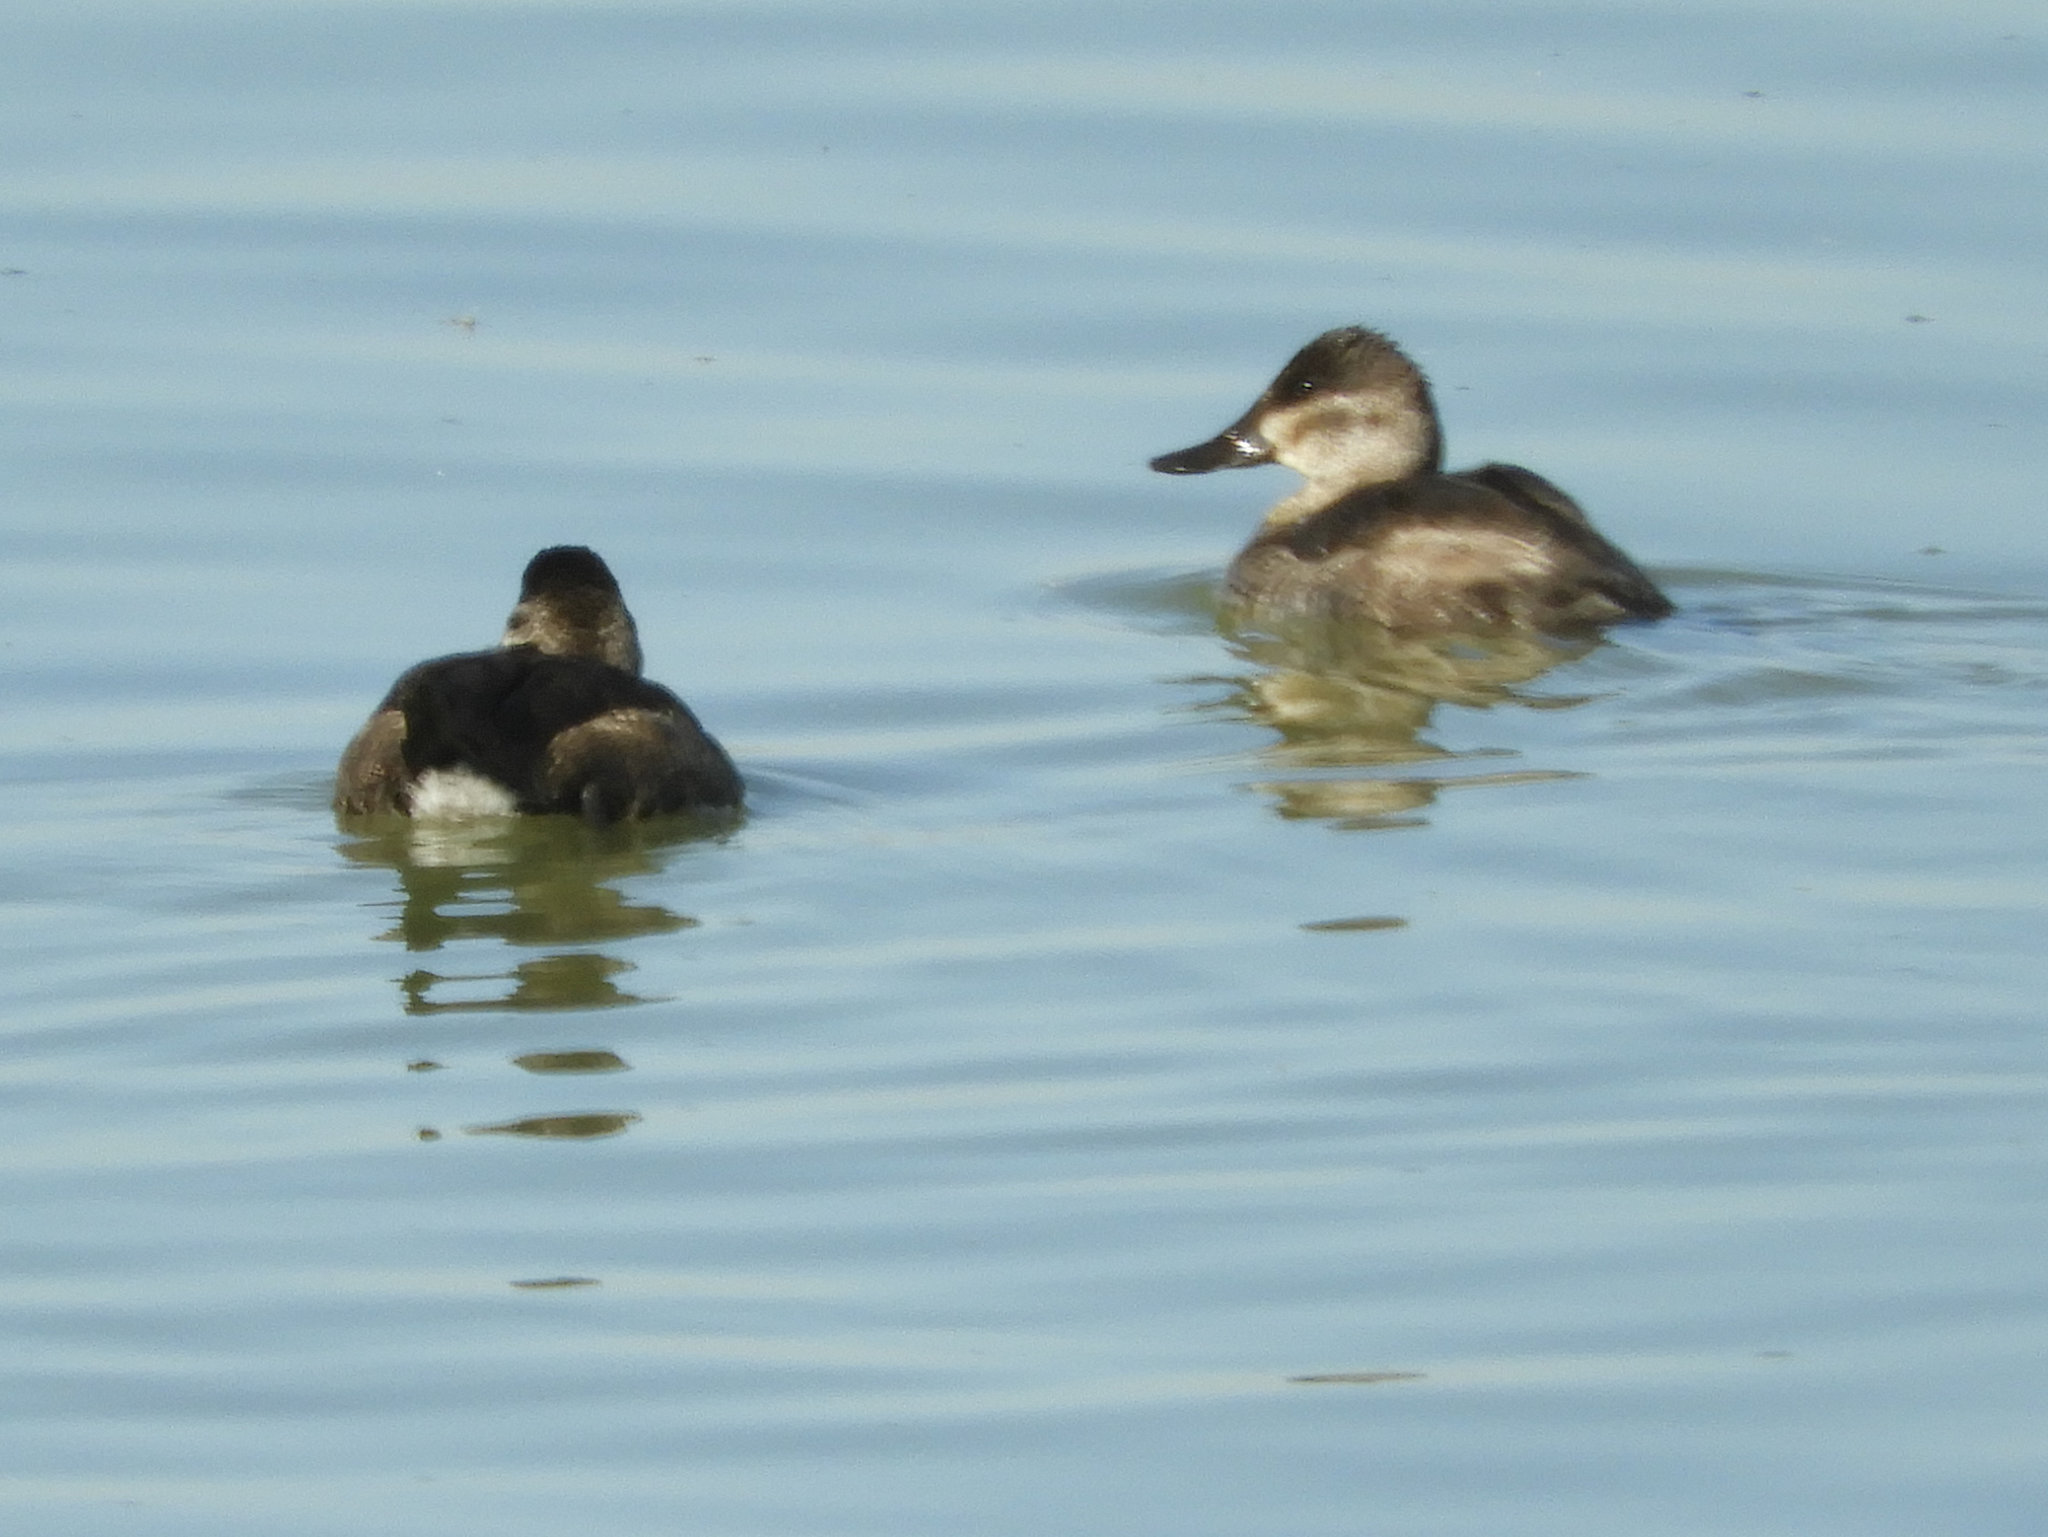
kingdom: Animalia
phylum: Chordata
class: Aves
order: Anseriformes
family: Anatidae
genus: Oxyura
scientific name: Oxyura jamaicensis
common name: Ruddy duck
